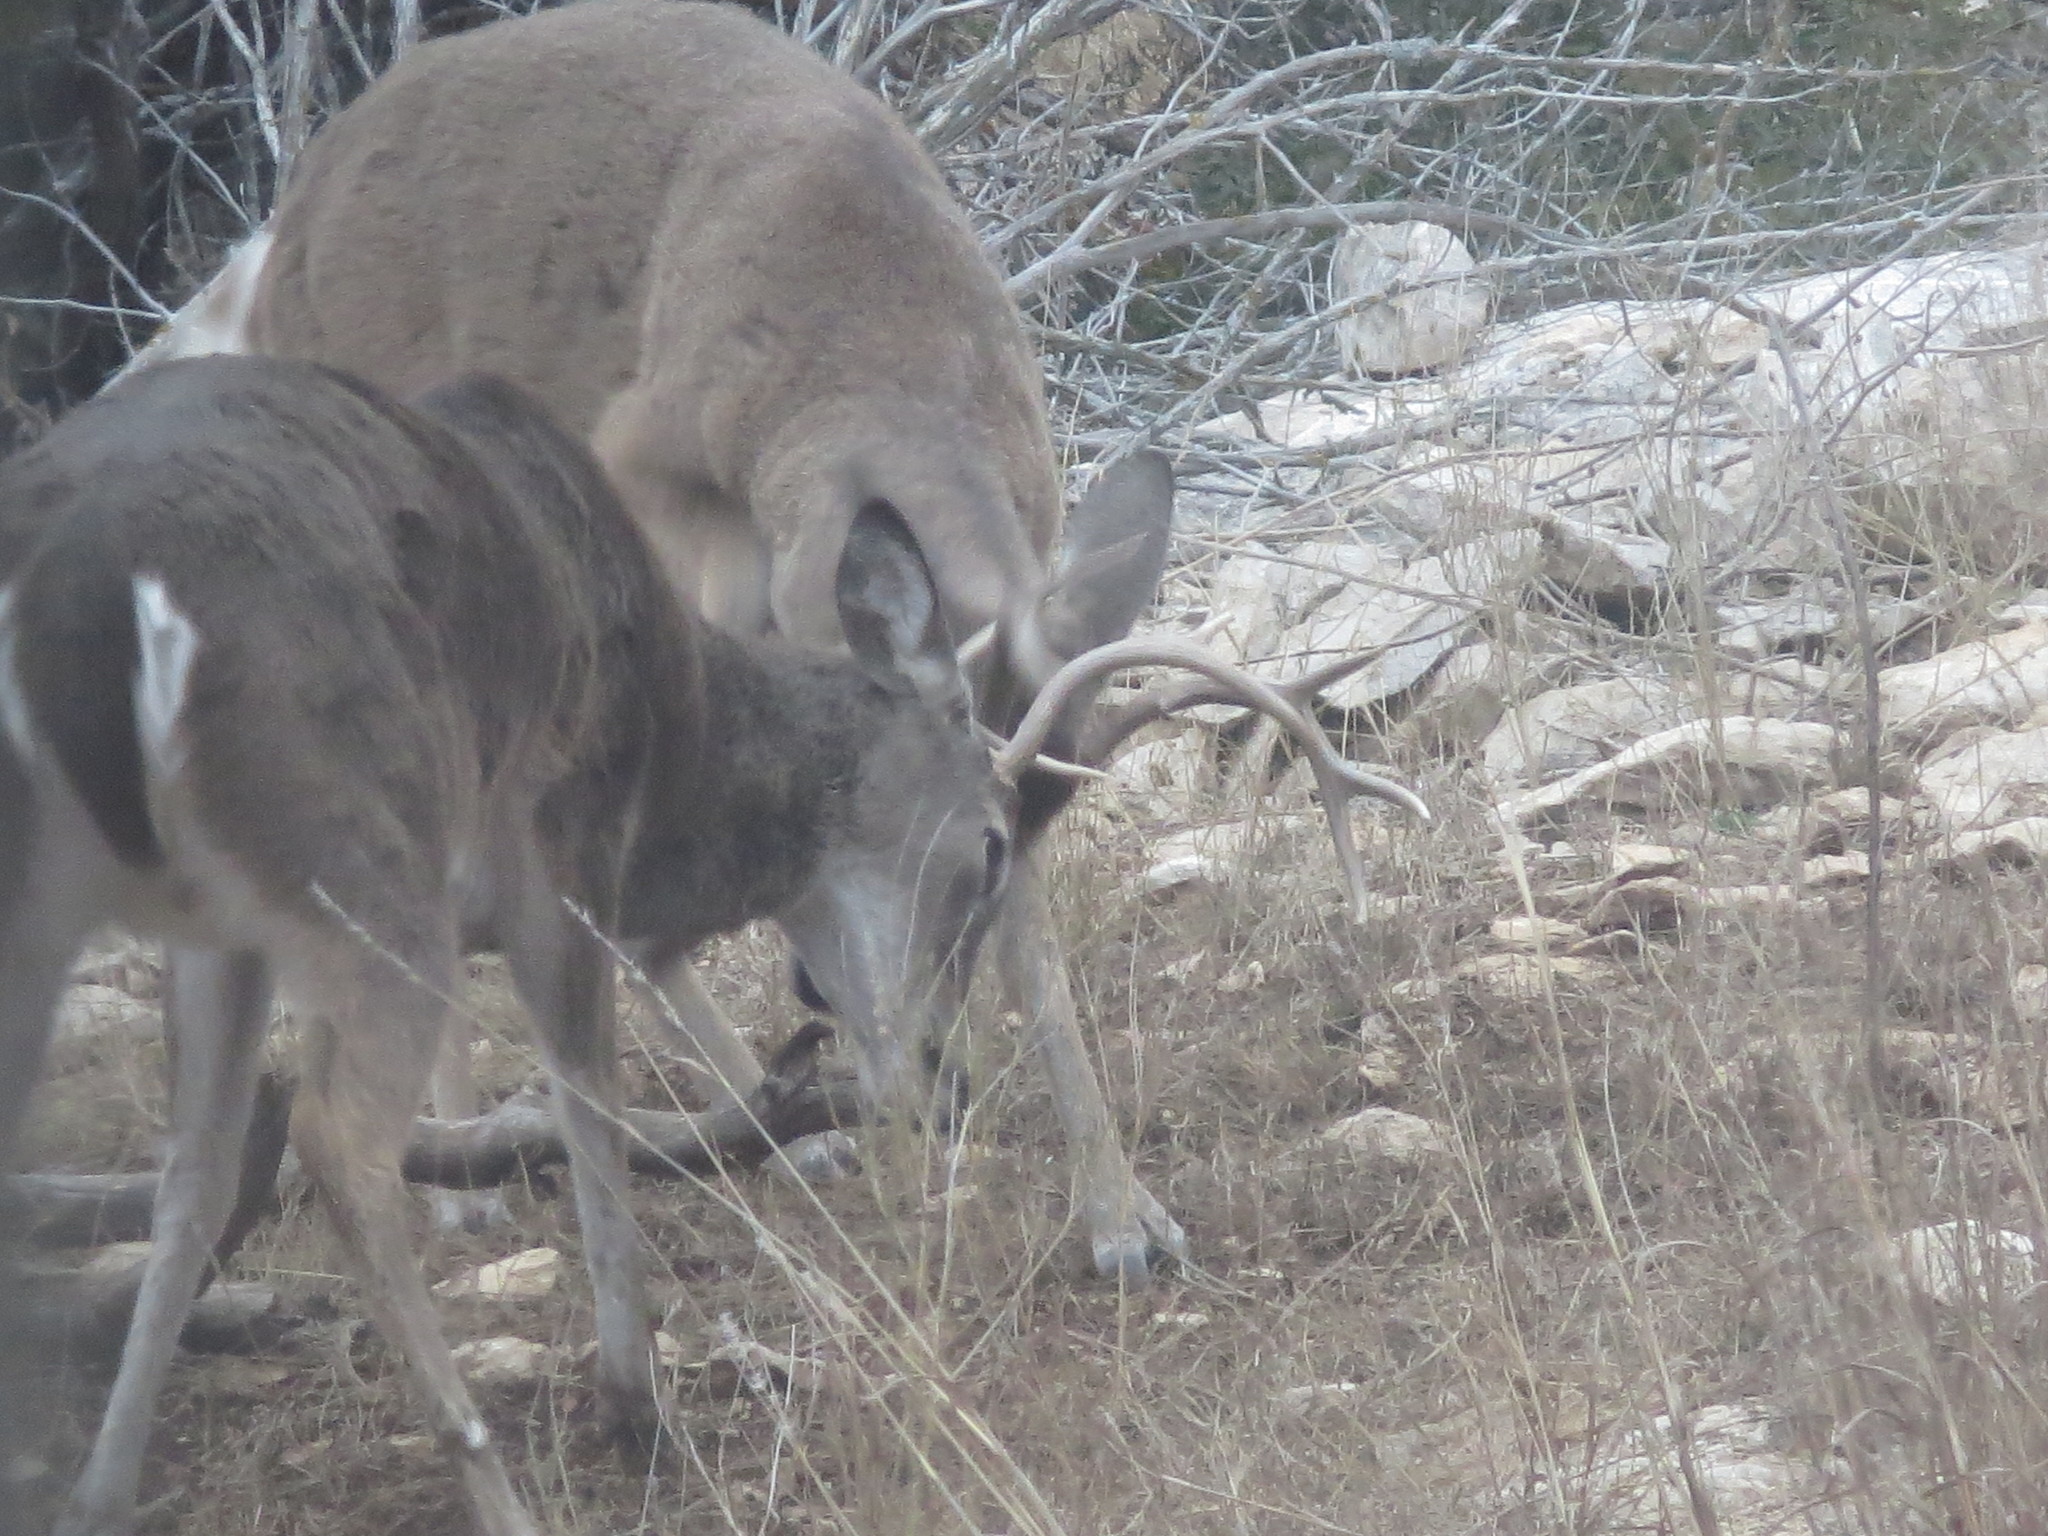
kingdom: Animalia
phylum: Chordata
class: Mammalia
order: Artiodactyla
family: Cervidae
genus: Odocoileus
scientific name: Odocoileus virginianus
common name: White-tailed deer
